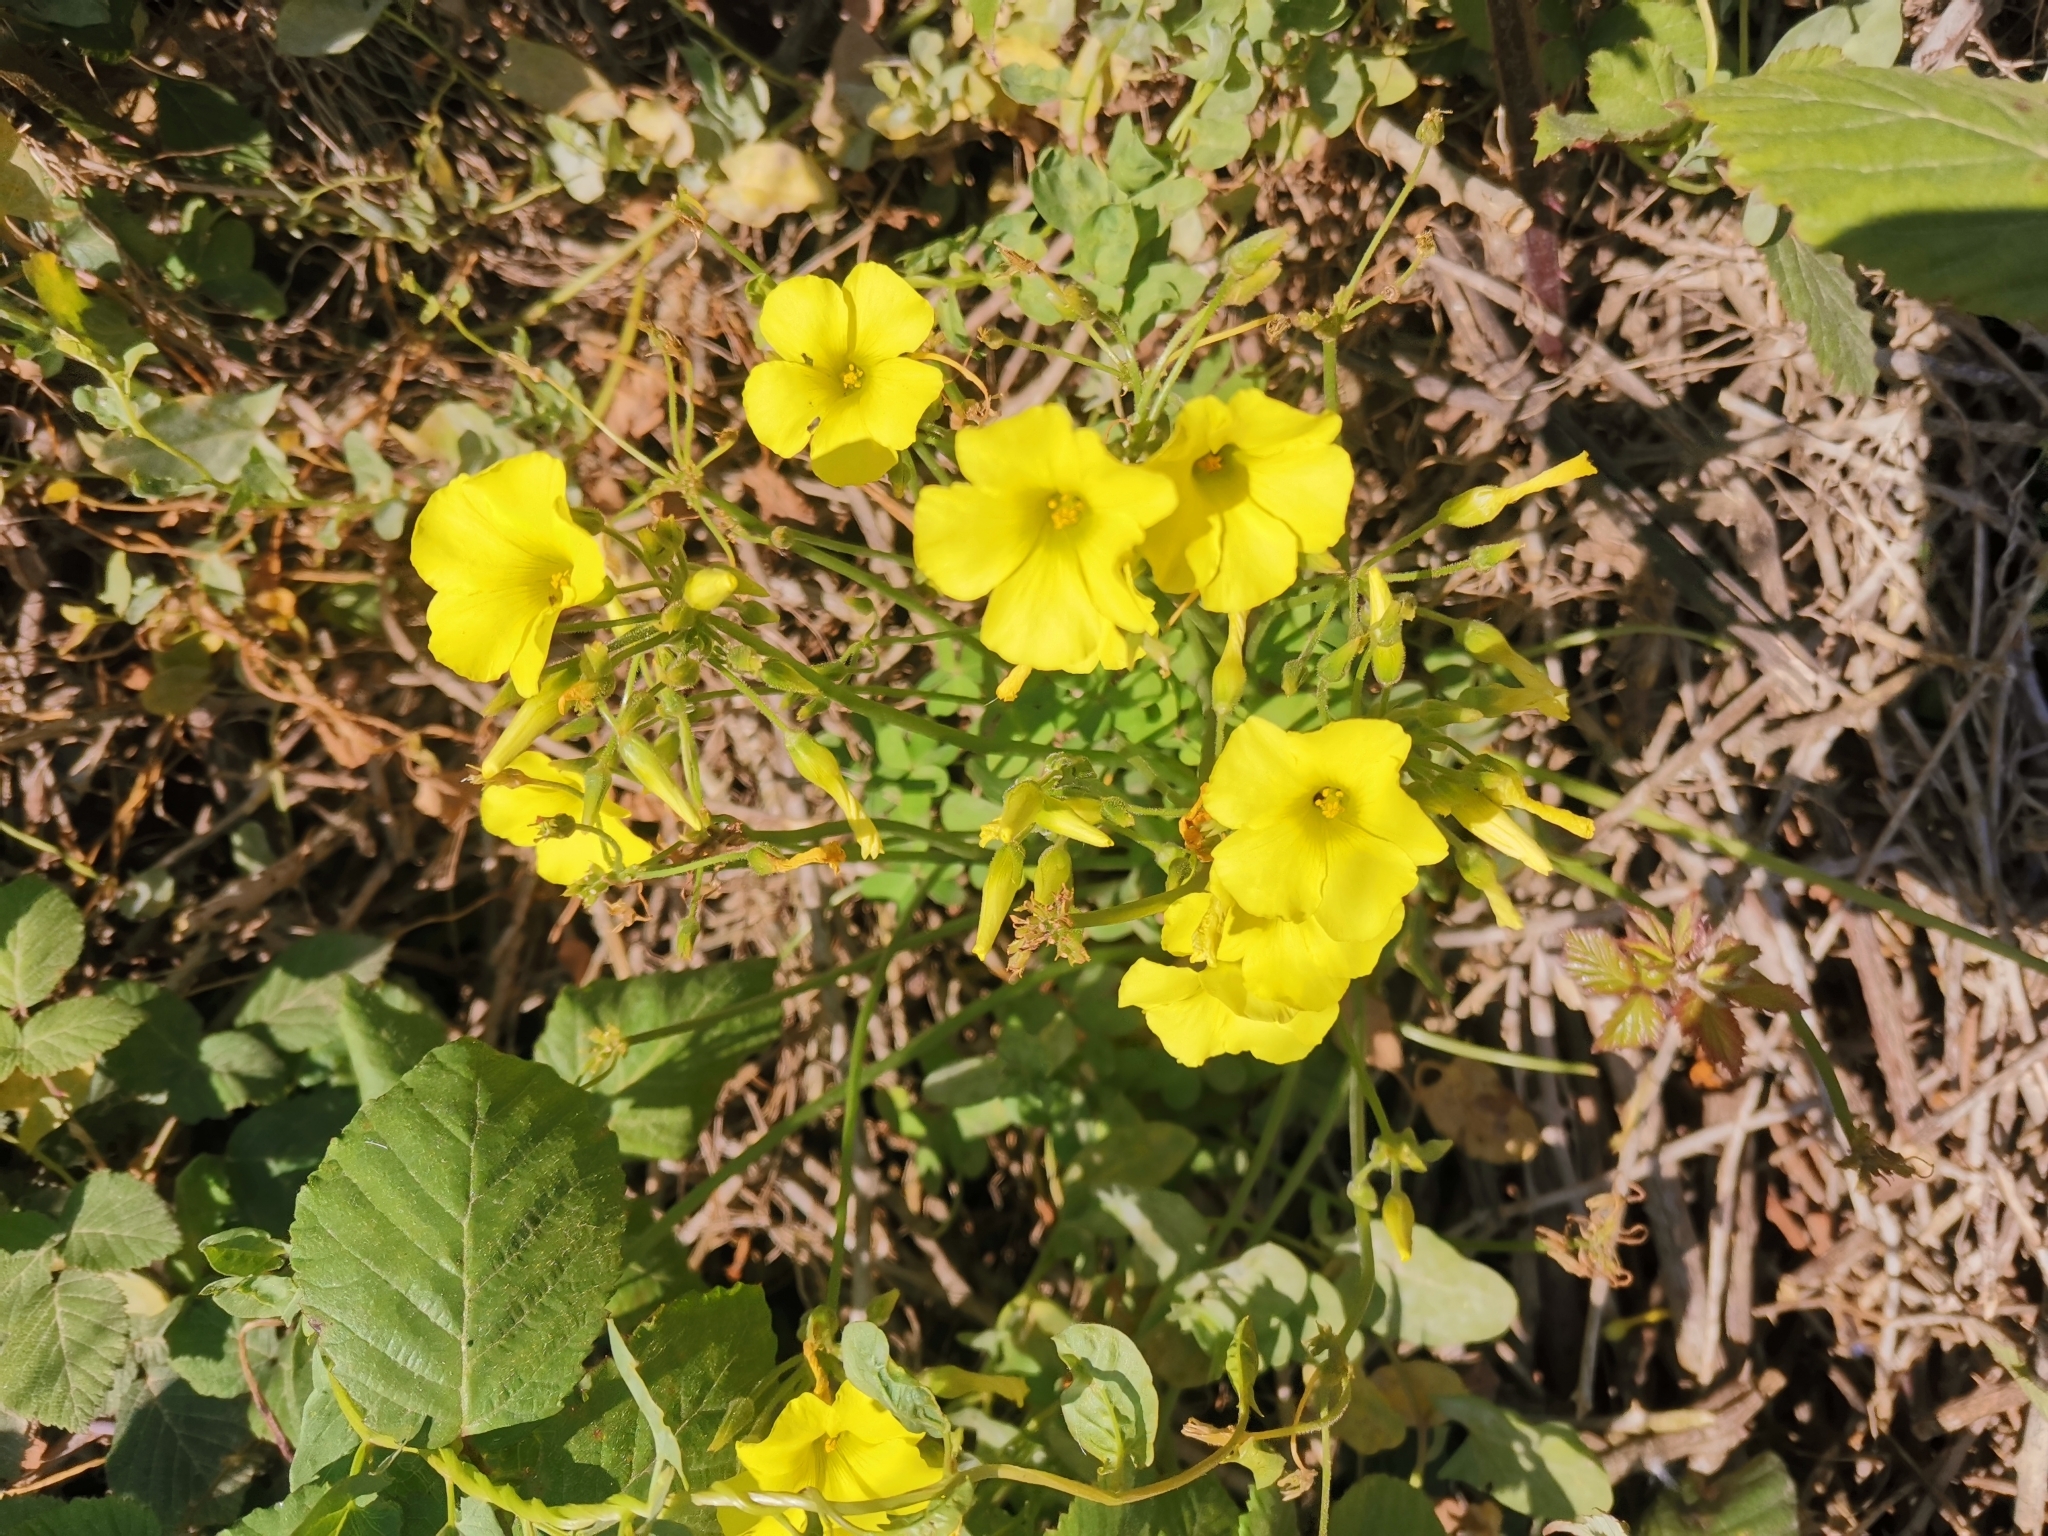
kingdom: Plantae
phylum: Tracheophyta
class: Magnoliopsida
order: Oxalidales
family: Oxalidaceae
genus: Oxalis
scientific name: Oxalis pes-caprae
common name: Bermuda-buttercup
